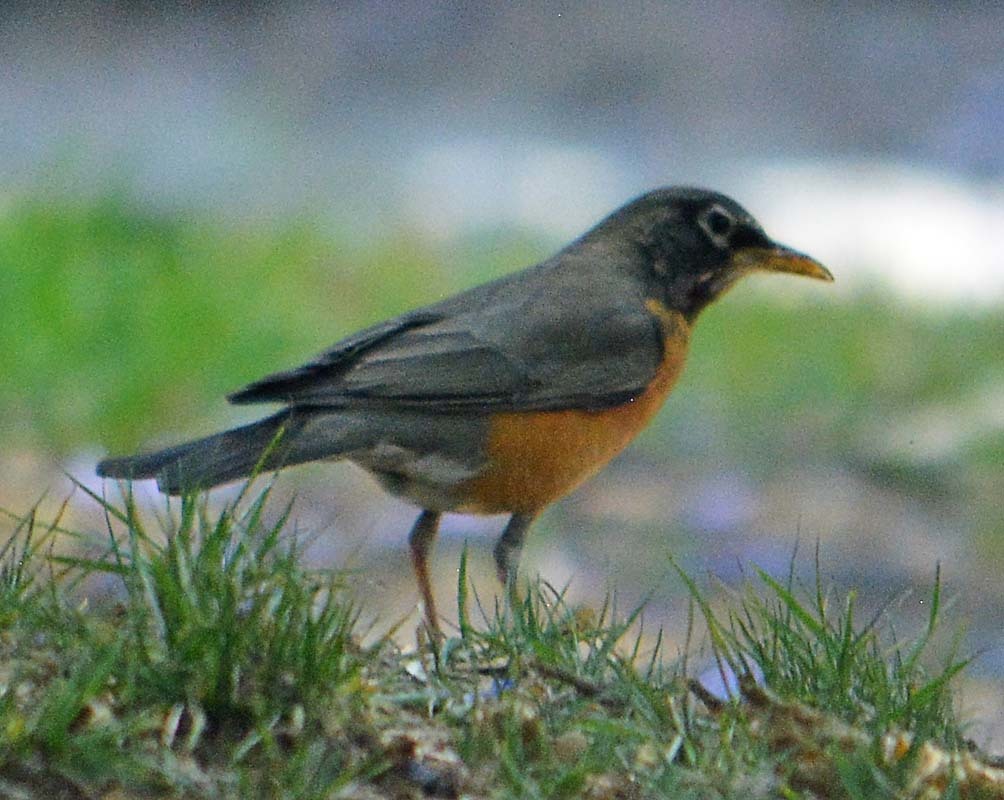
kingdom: Animalia
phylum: Chordata
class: Aves
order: Passeriformes
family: Turdidae
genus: Turdus
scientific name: Turdus migratorius
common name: American robin
